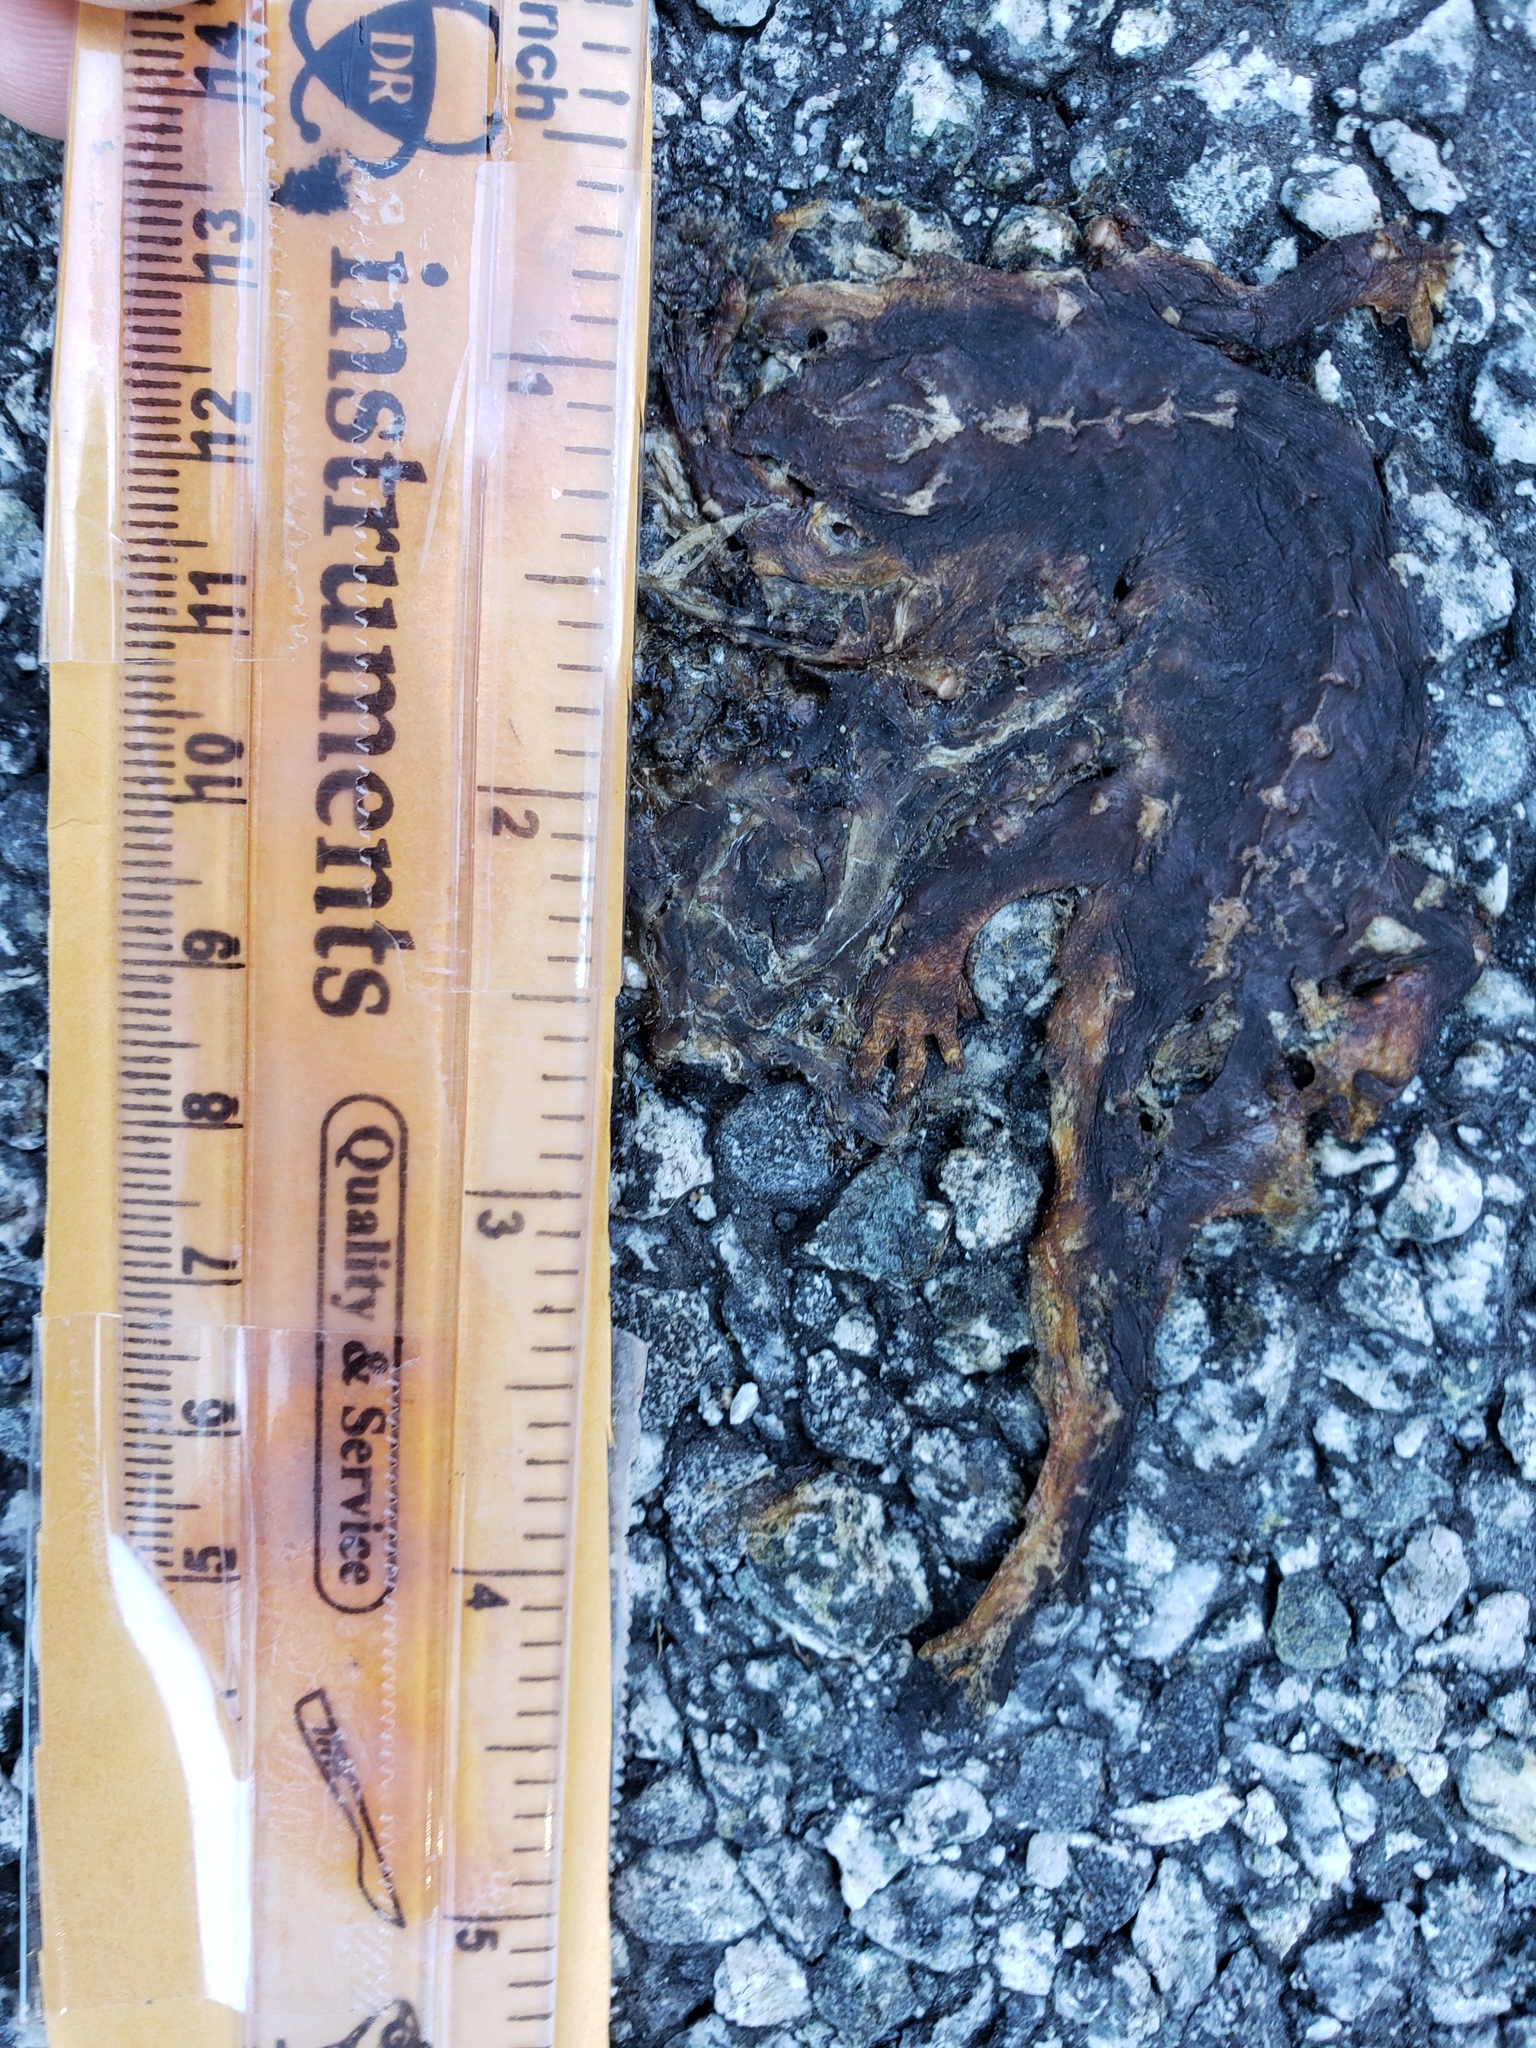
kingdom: Animalia
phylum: Chordata
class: Amphibia
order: Caudata
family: Salamandridae
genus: Taricha
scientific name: Taricha
